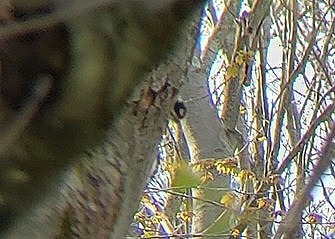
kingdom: Animalia
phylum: Chordata
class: Aves
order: Piciformes
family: Picidae
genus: Leuconotopicus
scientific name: Leuconotopicus villosus
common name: Hairy woodpecker
